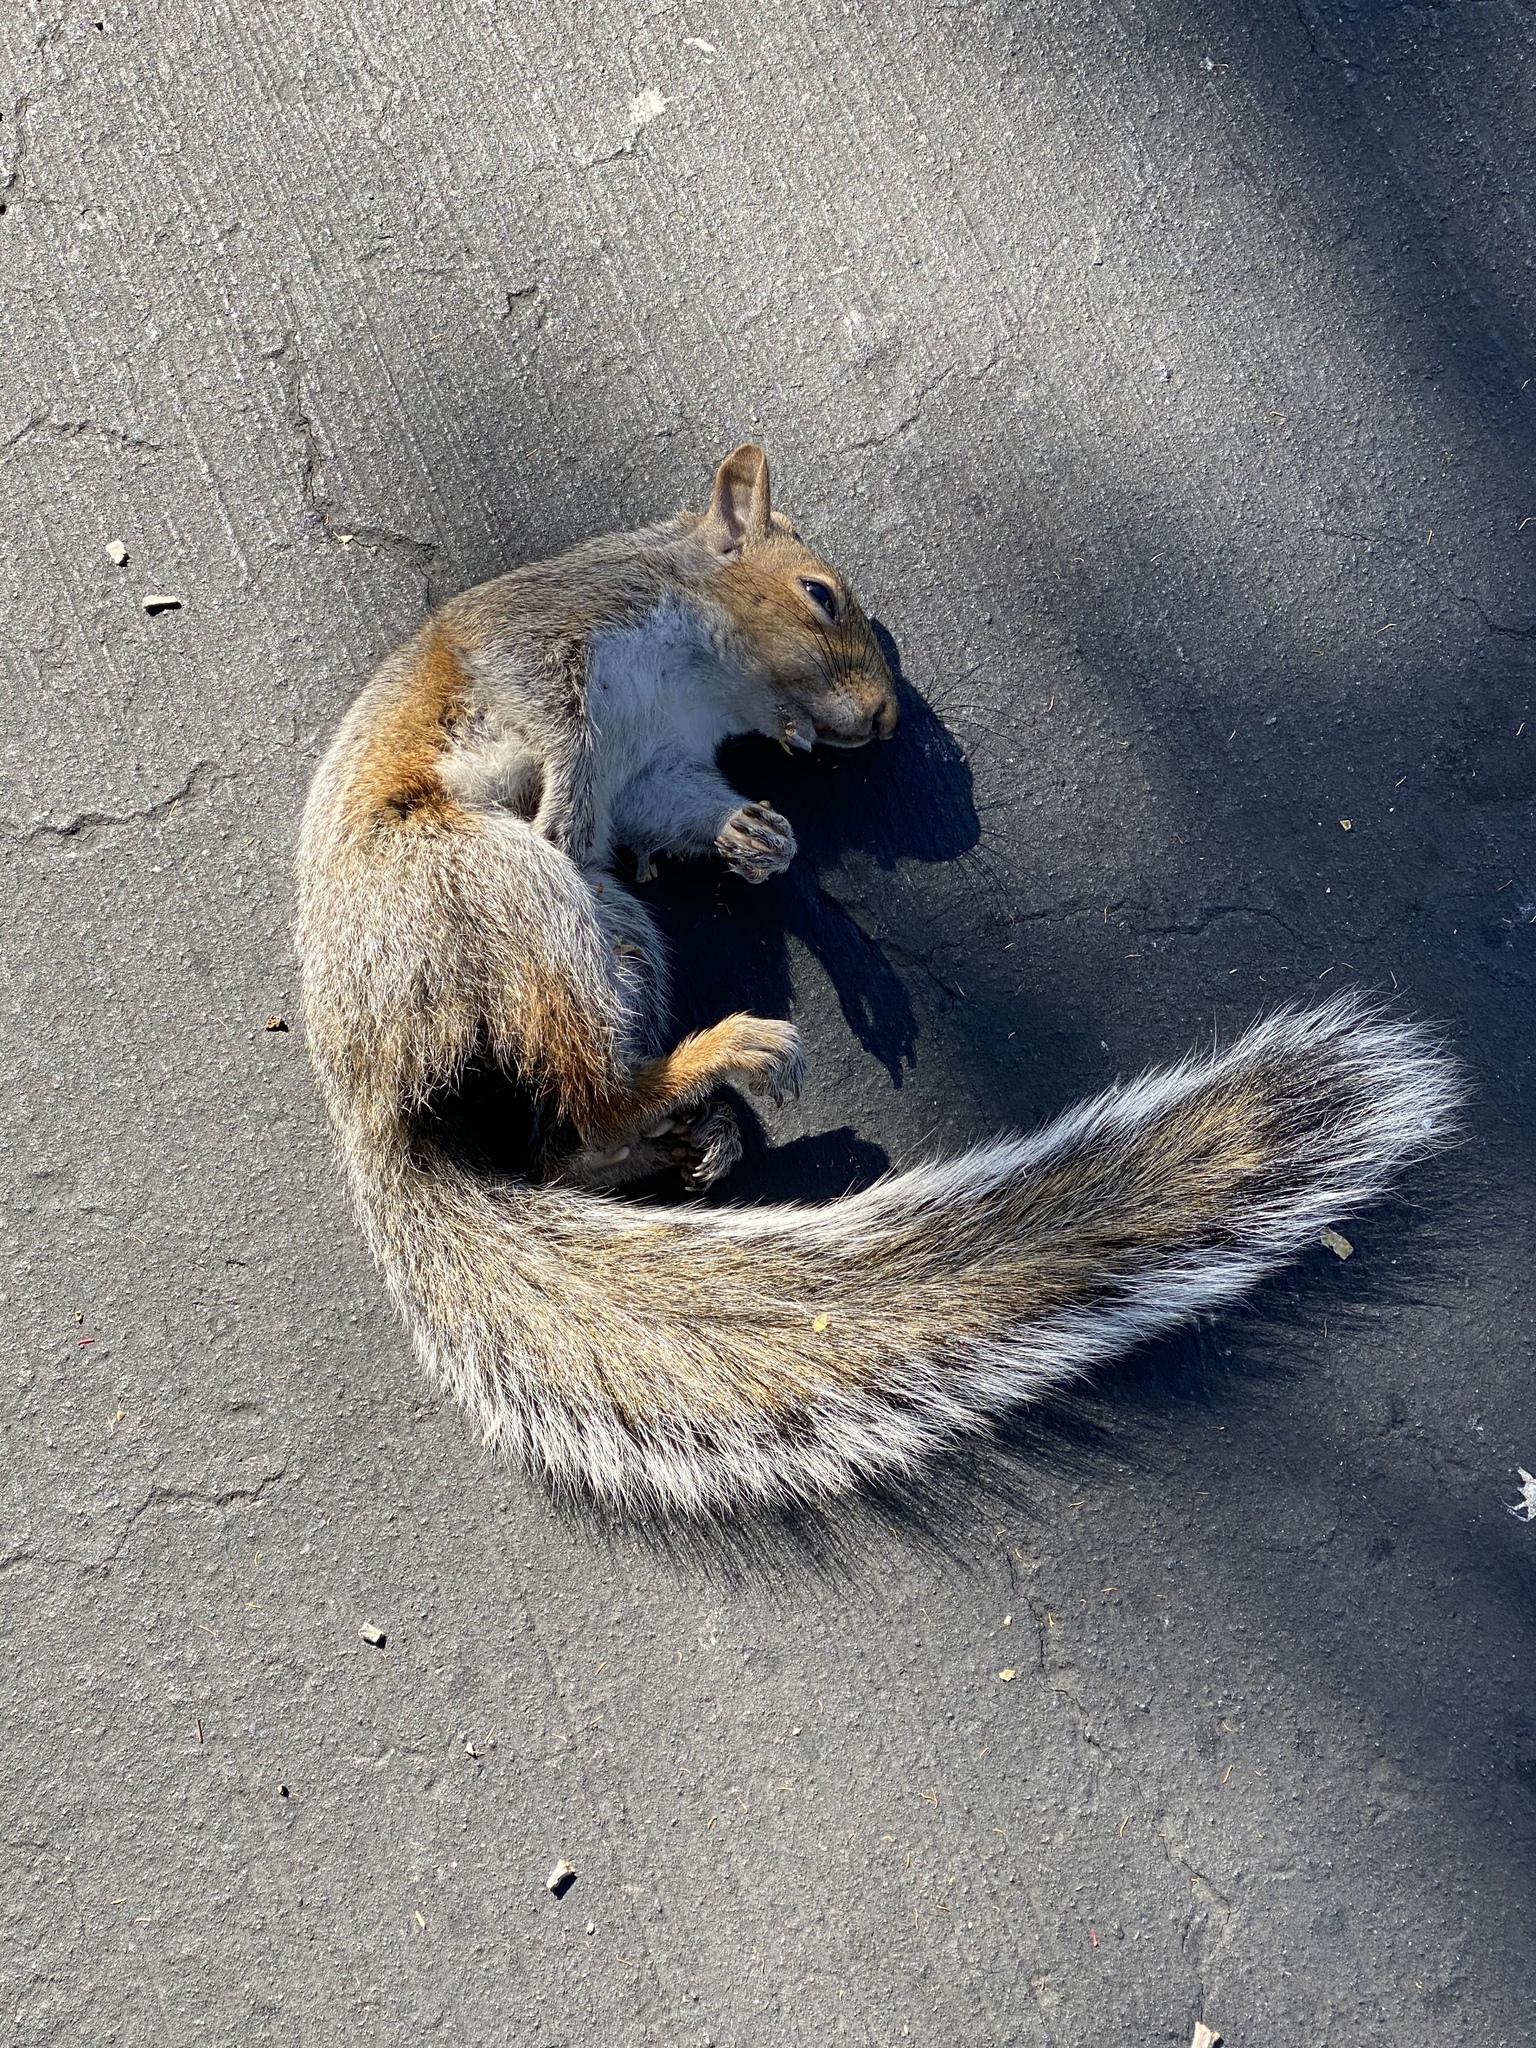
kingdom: Animalia
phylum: Chordata
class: Mammalia
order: Rodentia
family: Sciuridae
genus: Sciurus
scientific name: Sciurus carolinensis
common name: Eastern gray squirrel
